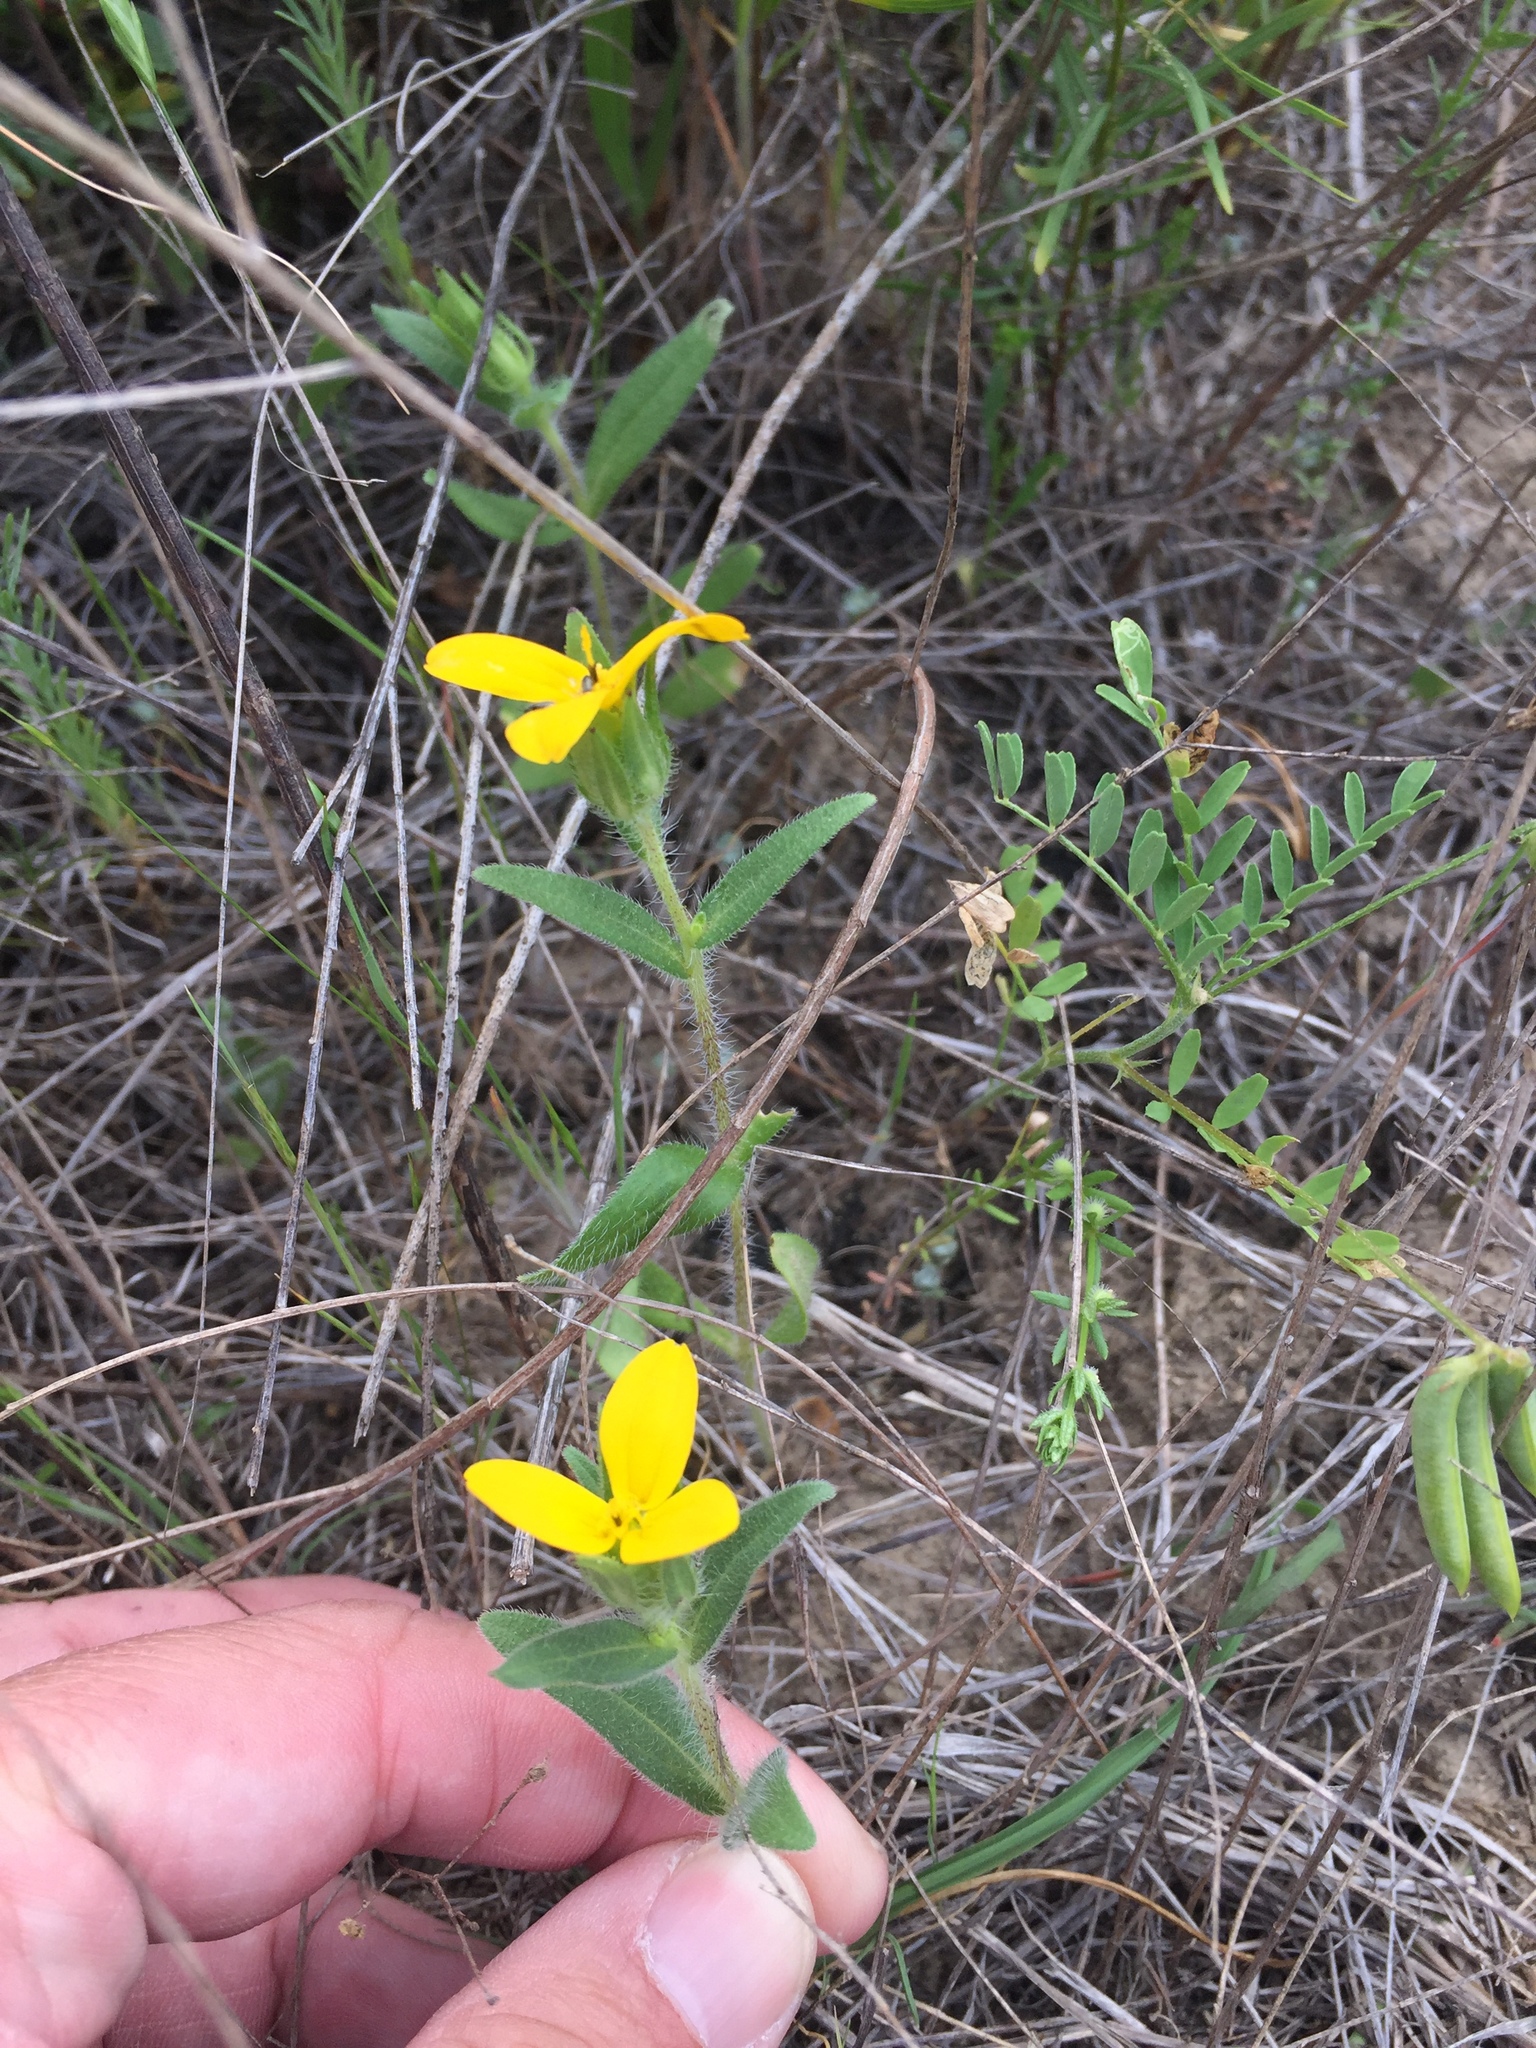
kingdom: Plantae
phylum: Tracheophyta
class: Magnoliopsida
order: Asterales
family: Asteraceae
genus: Lindheimera
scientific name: Lindheimera texana
